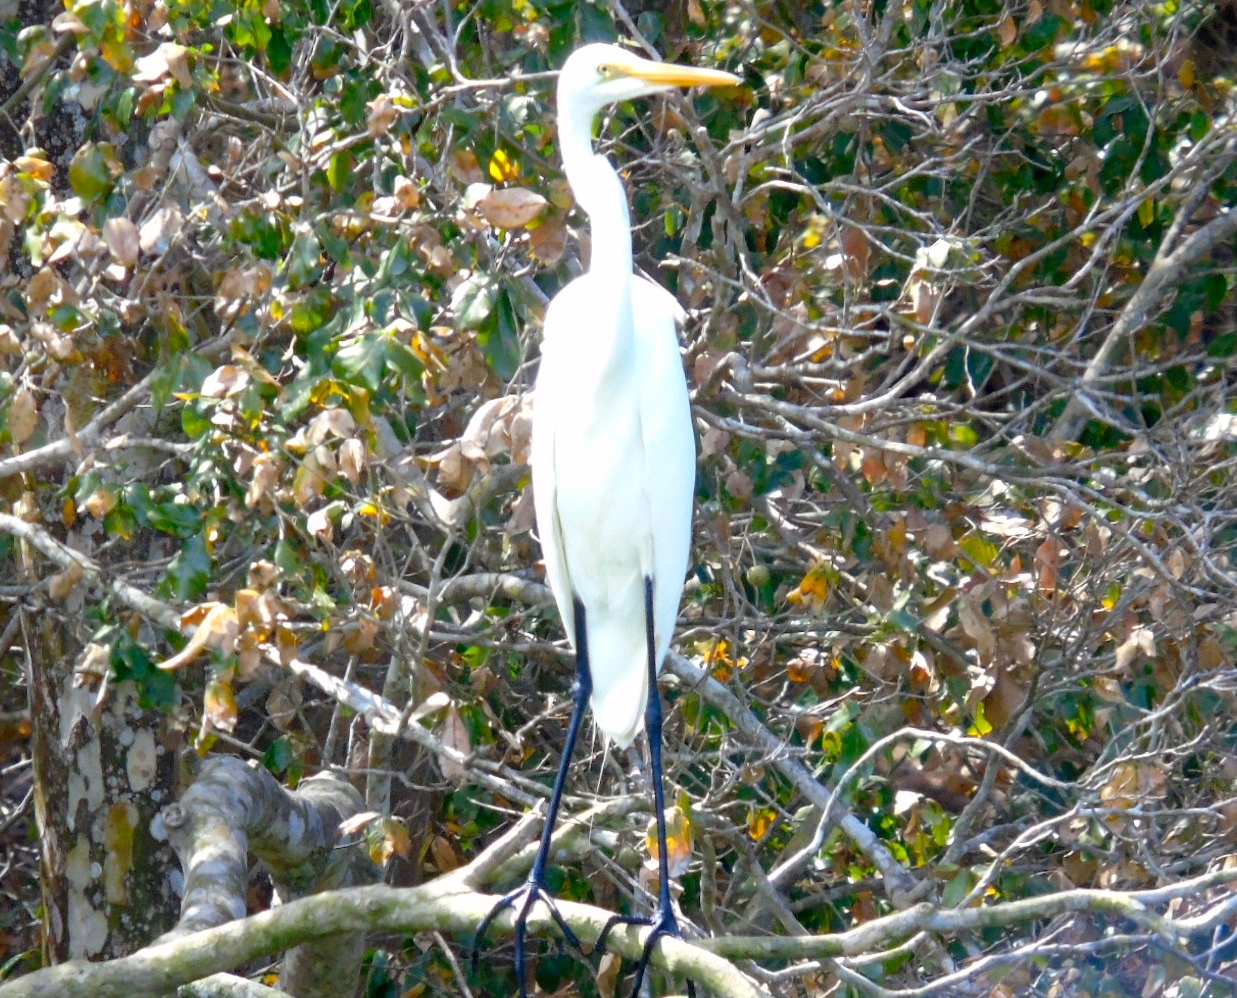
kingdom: Animalia
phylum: Chordata
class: Aves
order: Pelecaniformes
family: Ardeidae
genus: Ardea
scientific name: Ardea alba
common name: Great egret
